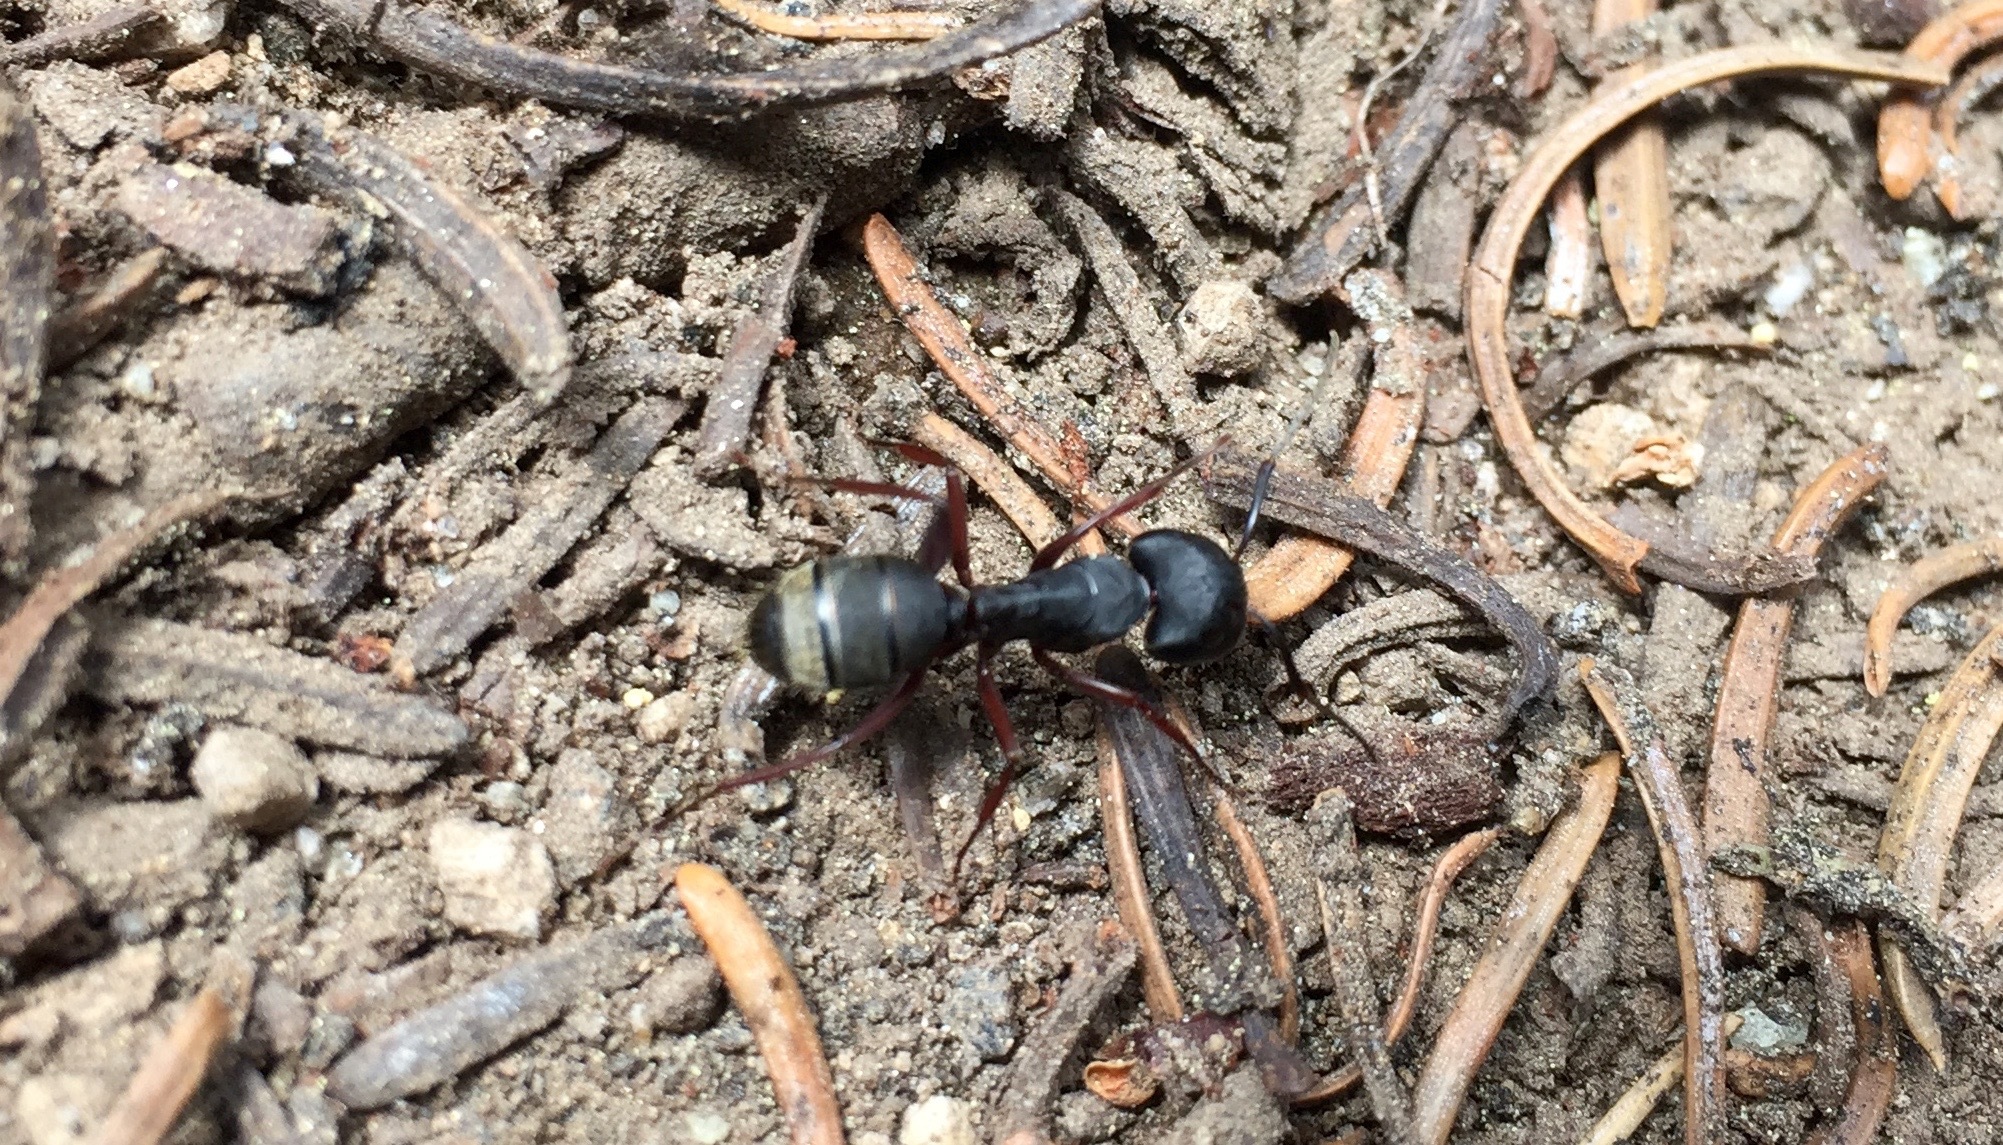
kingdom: Animalia
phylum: Arthropoda
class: Insecta
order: Hymenoptera
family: Formicidae
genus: Camponotus
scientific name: Camponotus modoc
